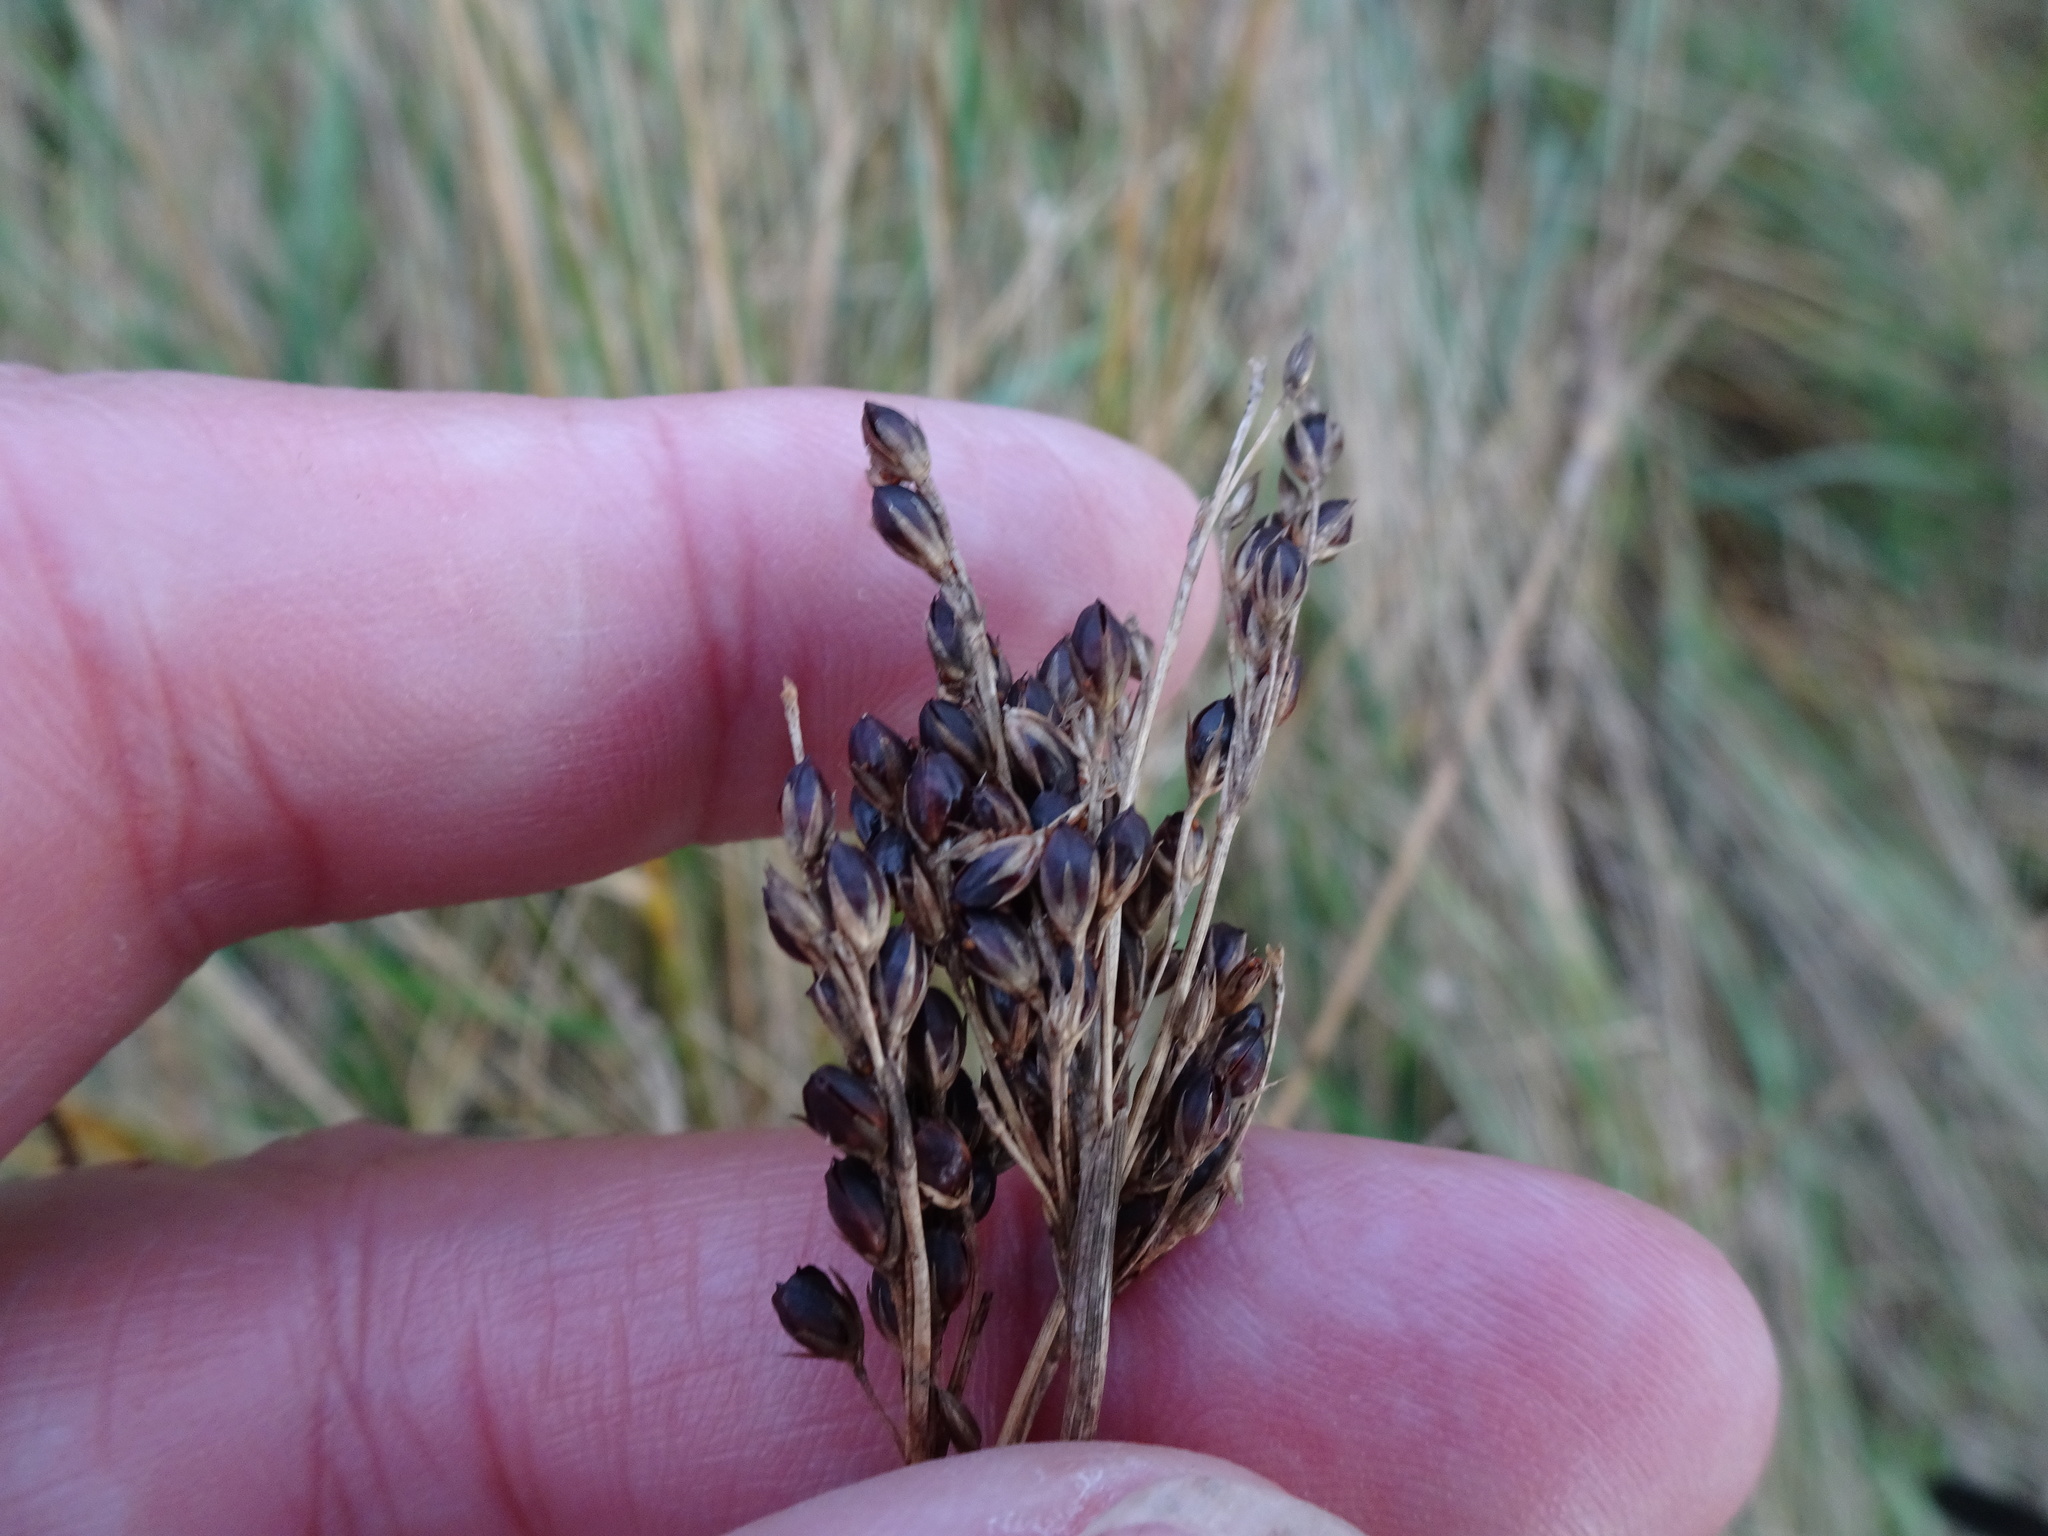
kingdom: Plantae
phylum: Tracheophyta
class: Liliopsida
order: Poales
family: Juncaceae
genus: Juncus
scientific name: Juncus inflexus
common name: Hard rush
